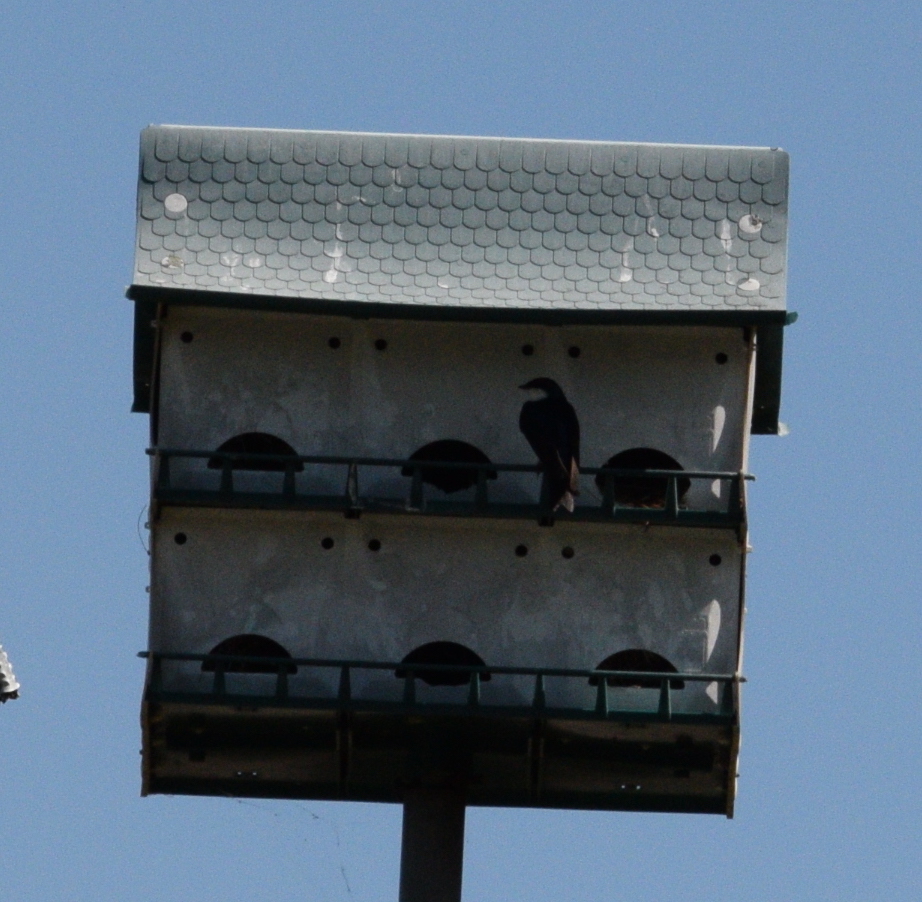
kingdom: Animalia
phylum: Chordata
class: Aves
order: Passeriformes
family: Hirundinidae
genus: Tachycineta
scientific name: Tachycineta bicolor
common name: Tree swallow
